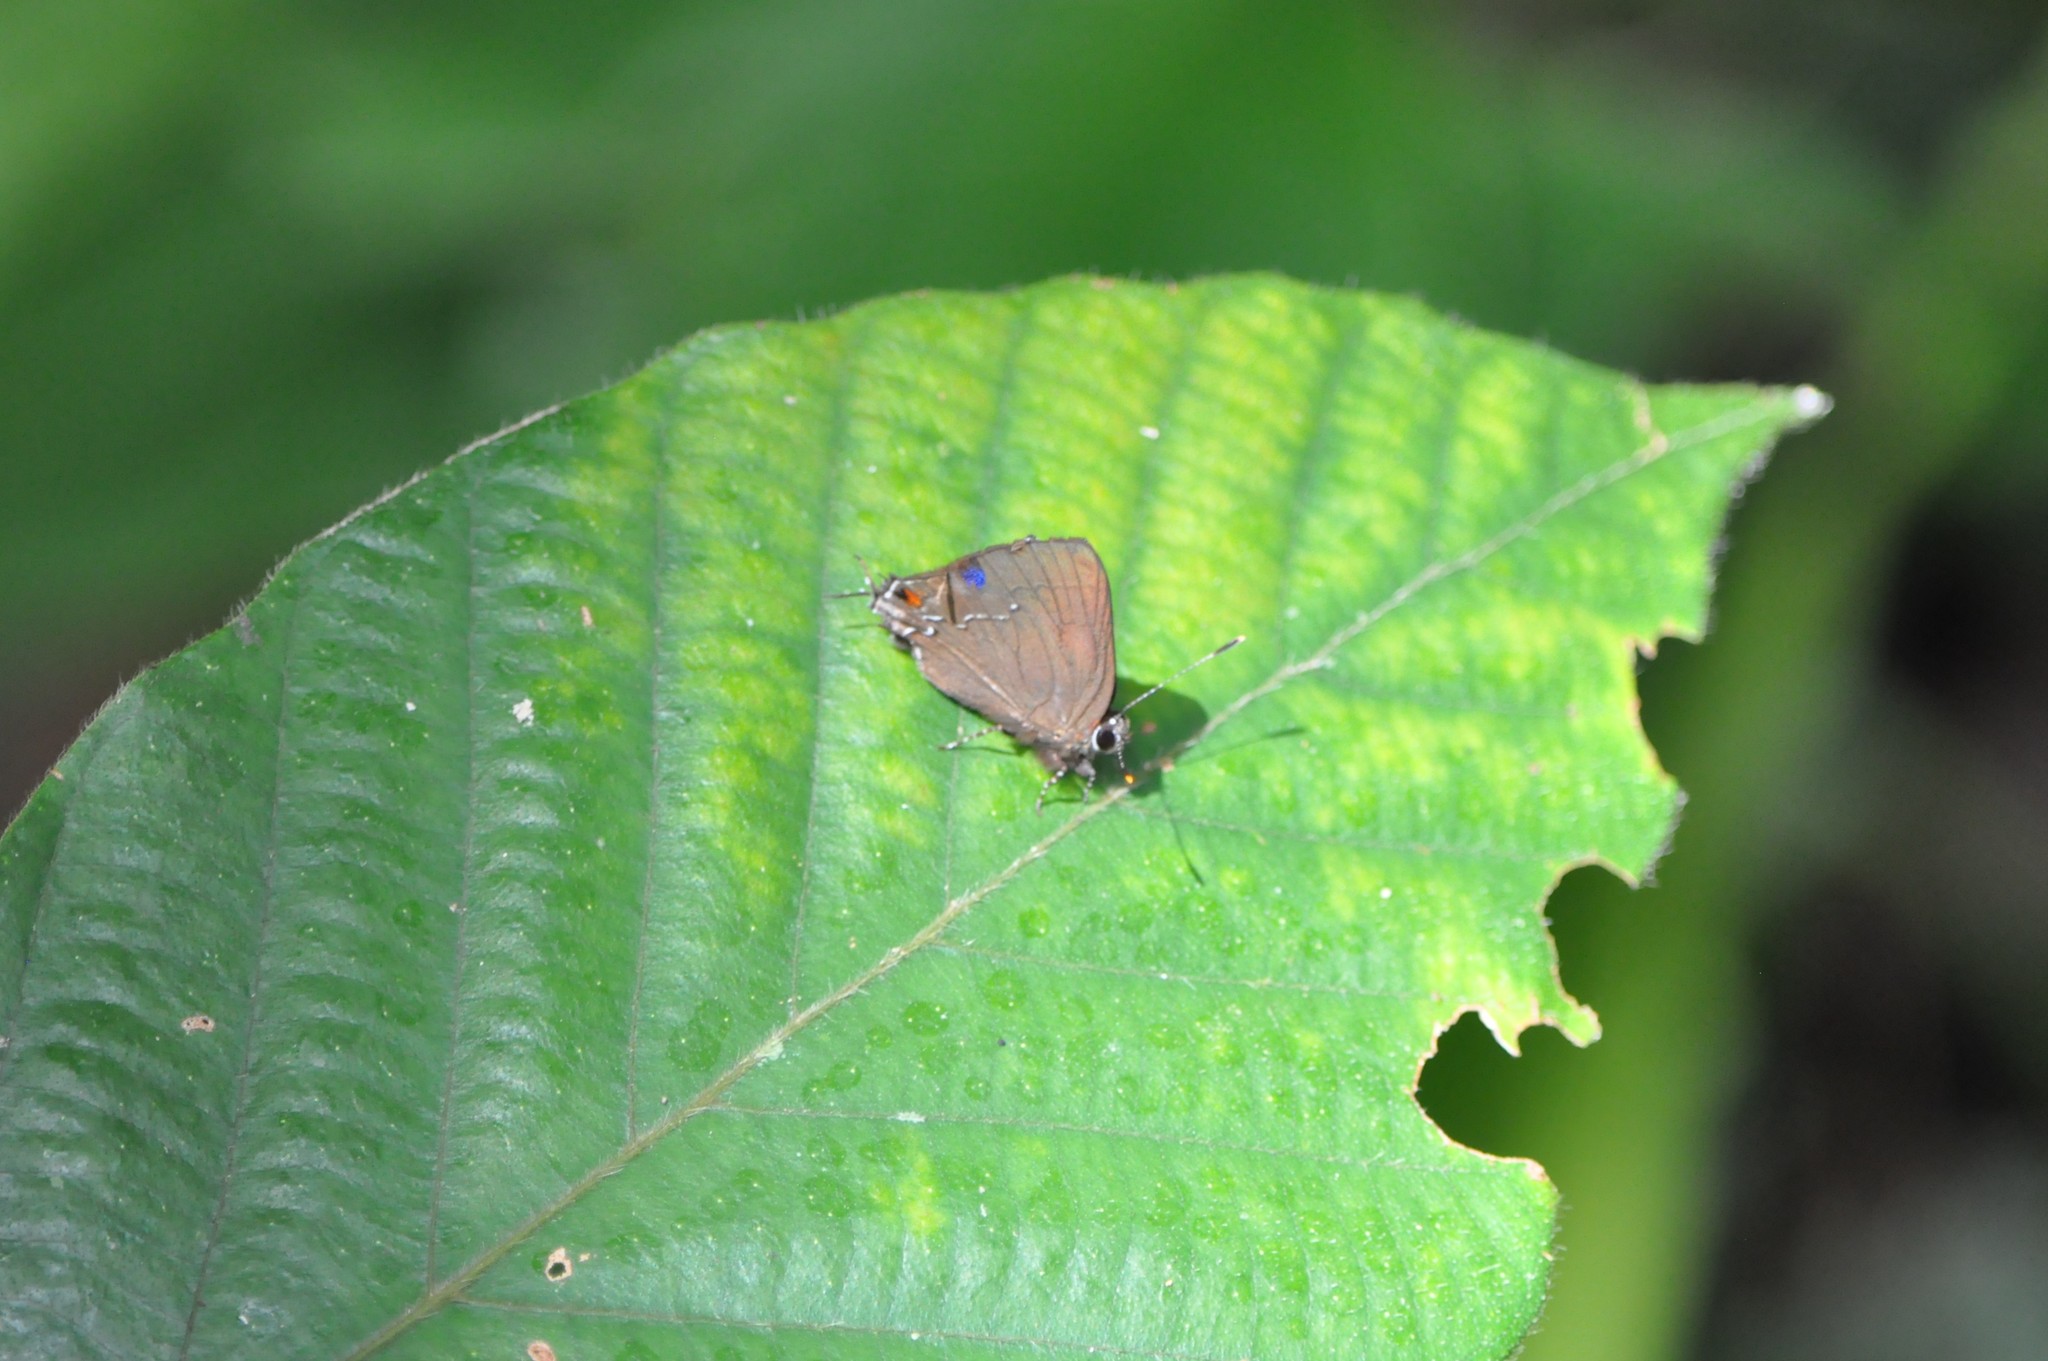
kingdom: Animalia
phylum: Arthropoda
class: Insecta
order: Lepidoptera
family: Lycaenidae
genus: Arumecla
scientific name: Arumecla galliena
